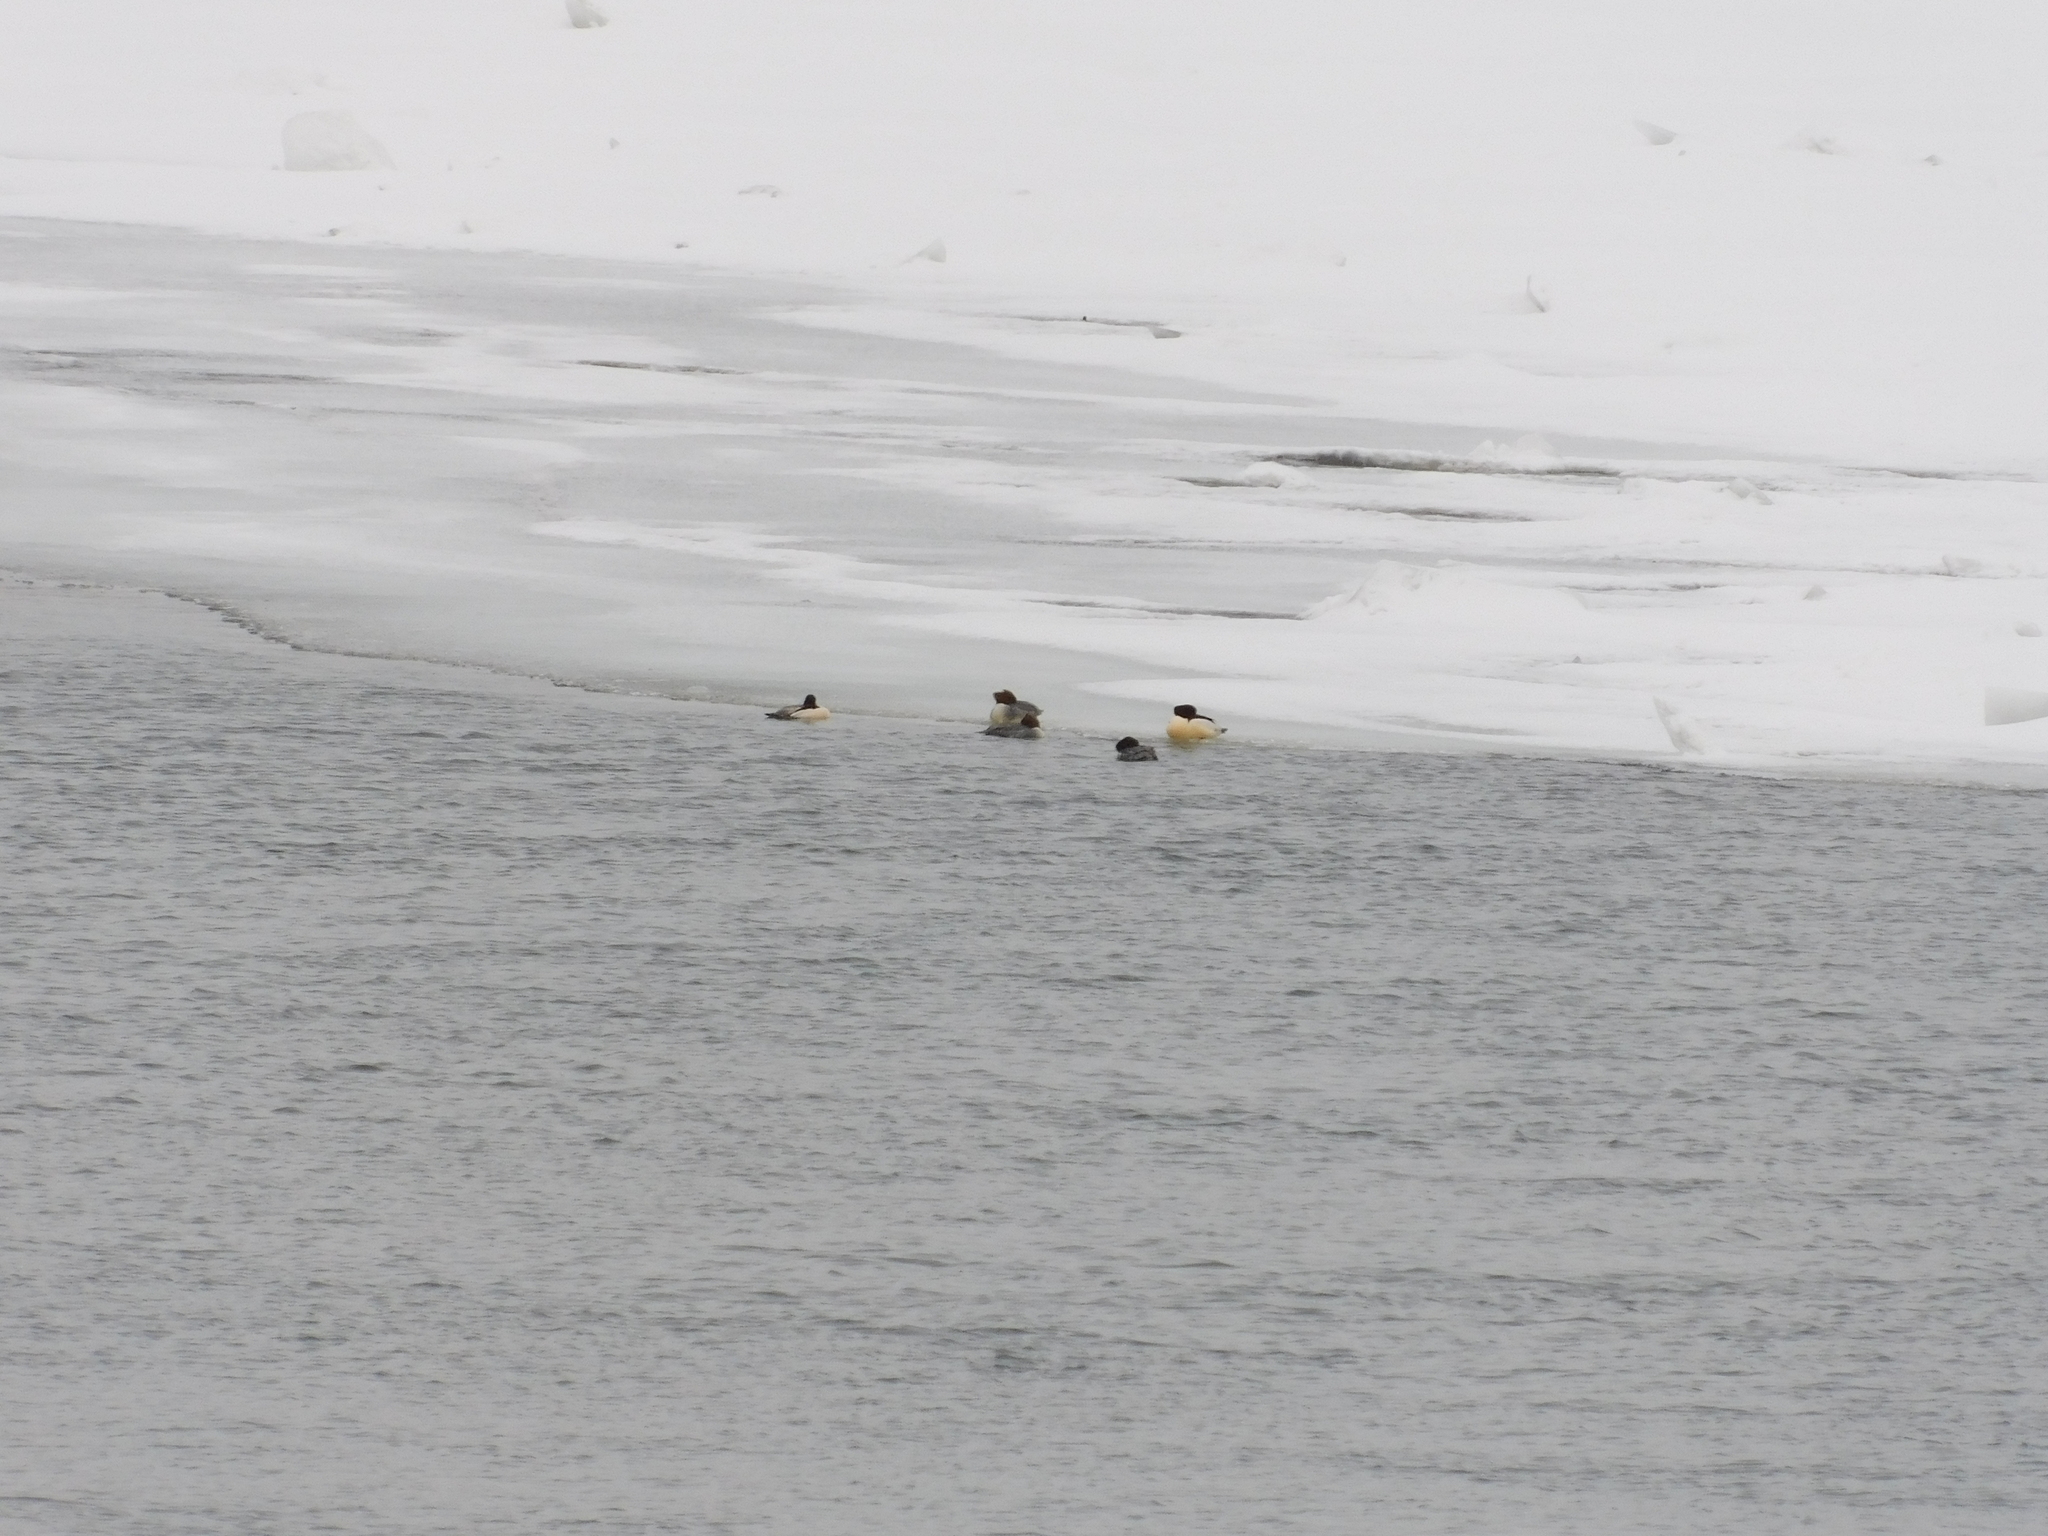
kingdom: Animalia
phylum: Chordata
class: Aves
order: Anseriformes
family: Anatidae
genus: Mergus
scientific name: Mergus merganser
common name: Common merganser
